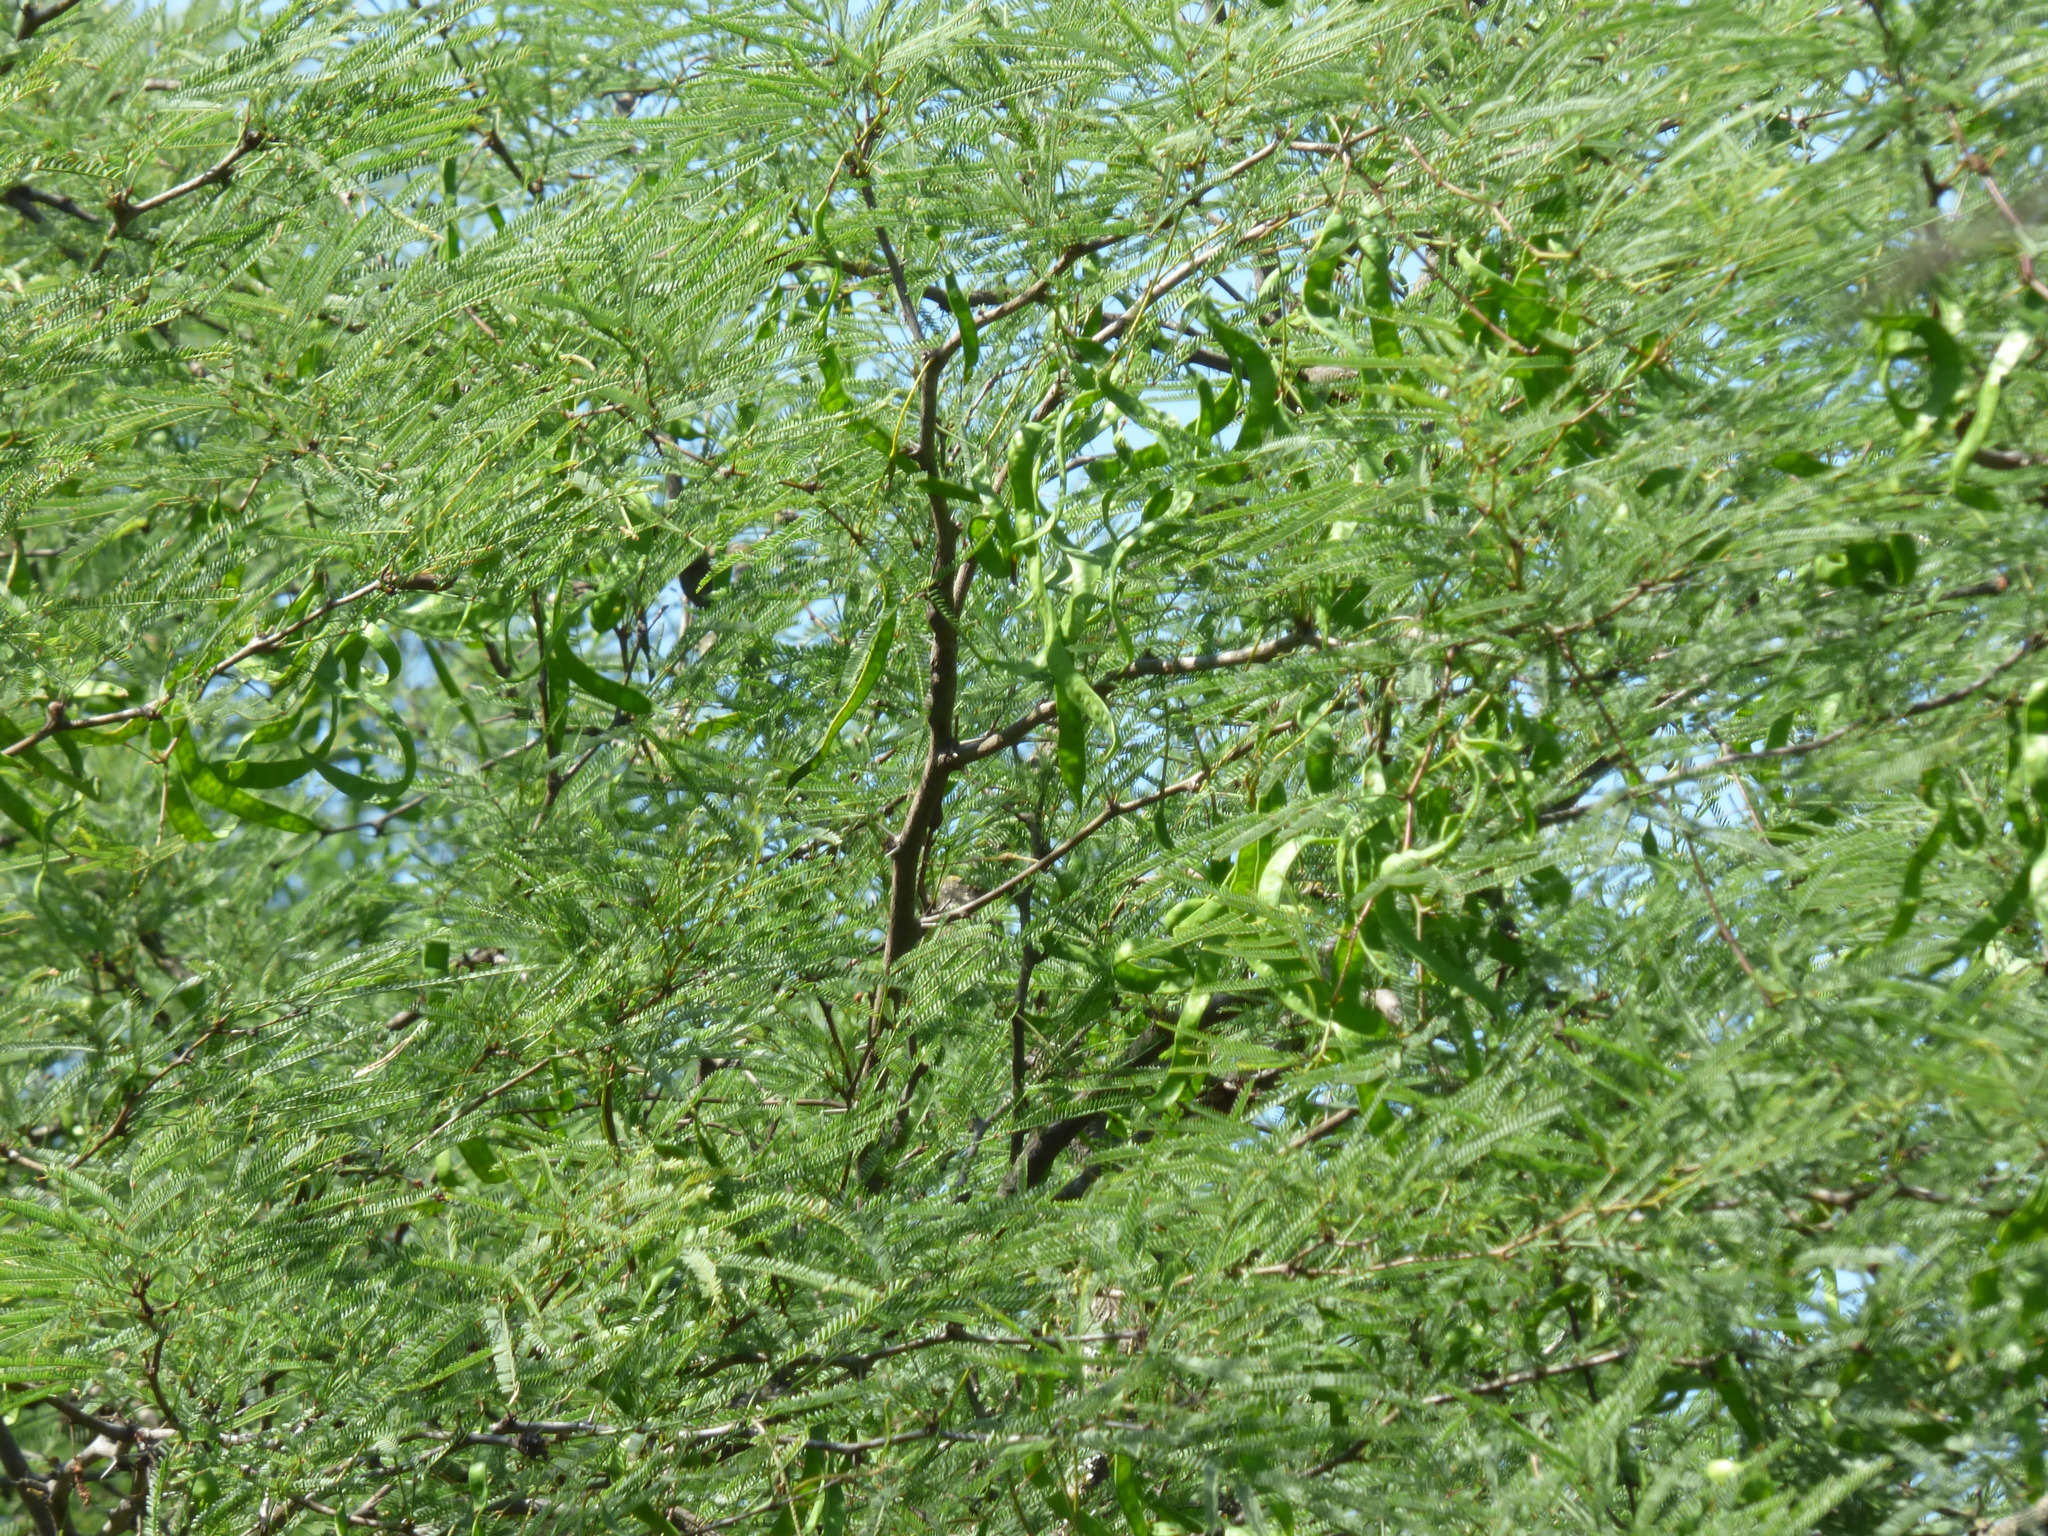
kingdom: Plantae
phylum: Tracheophyta
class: Magnoliopsida
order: Fabales
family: Fabaceae
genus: Prosopis
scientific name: Prosopis alba
